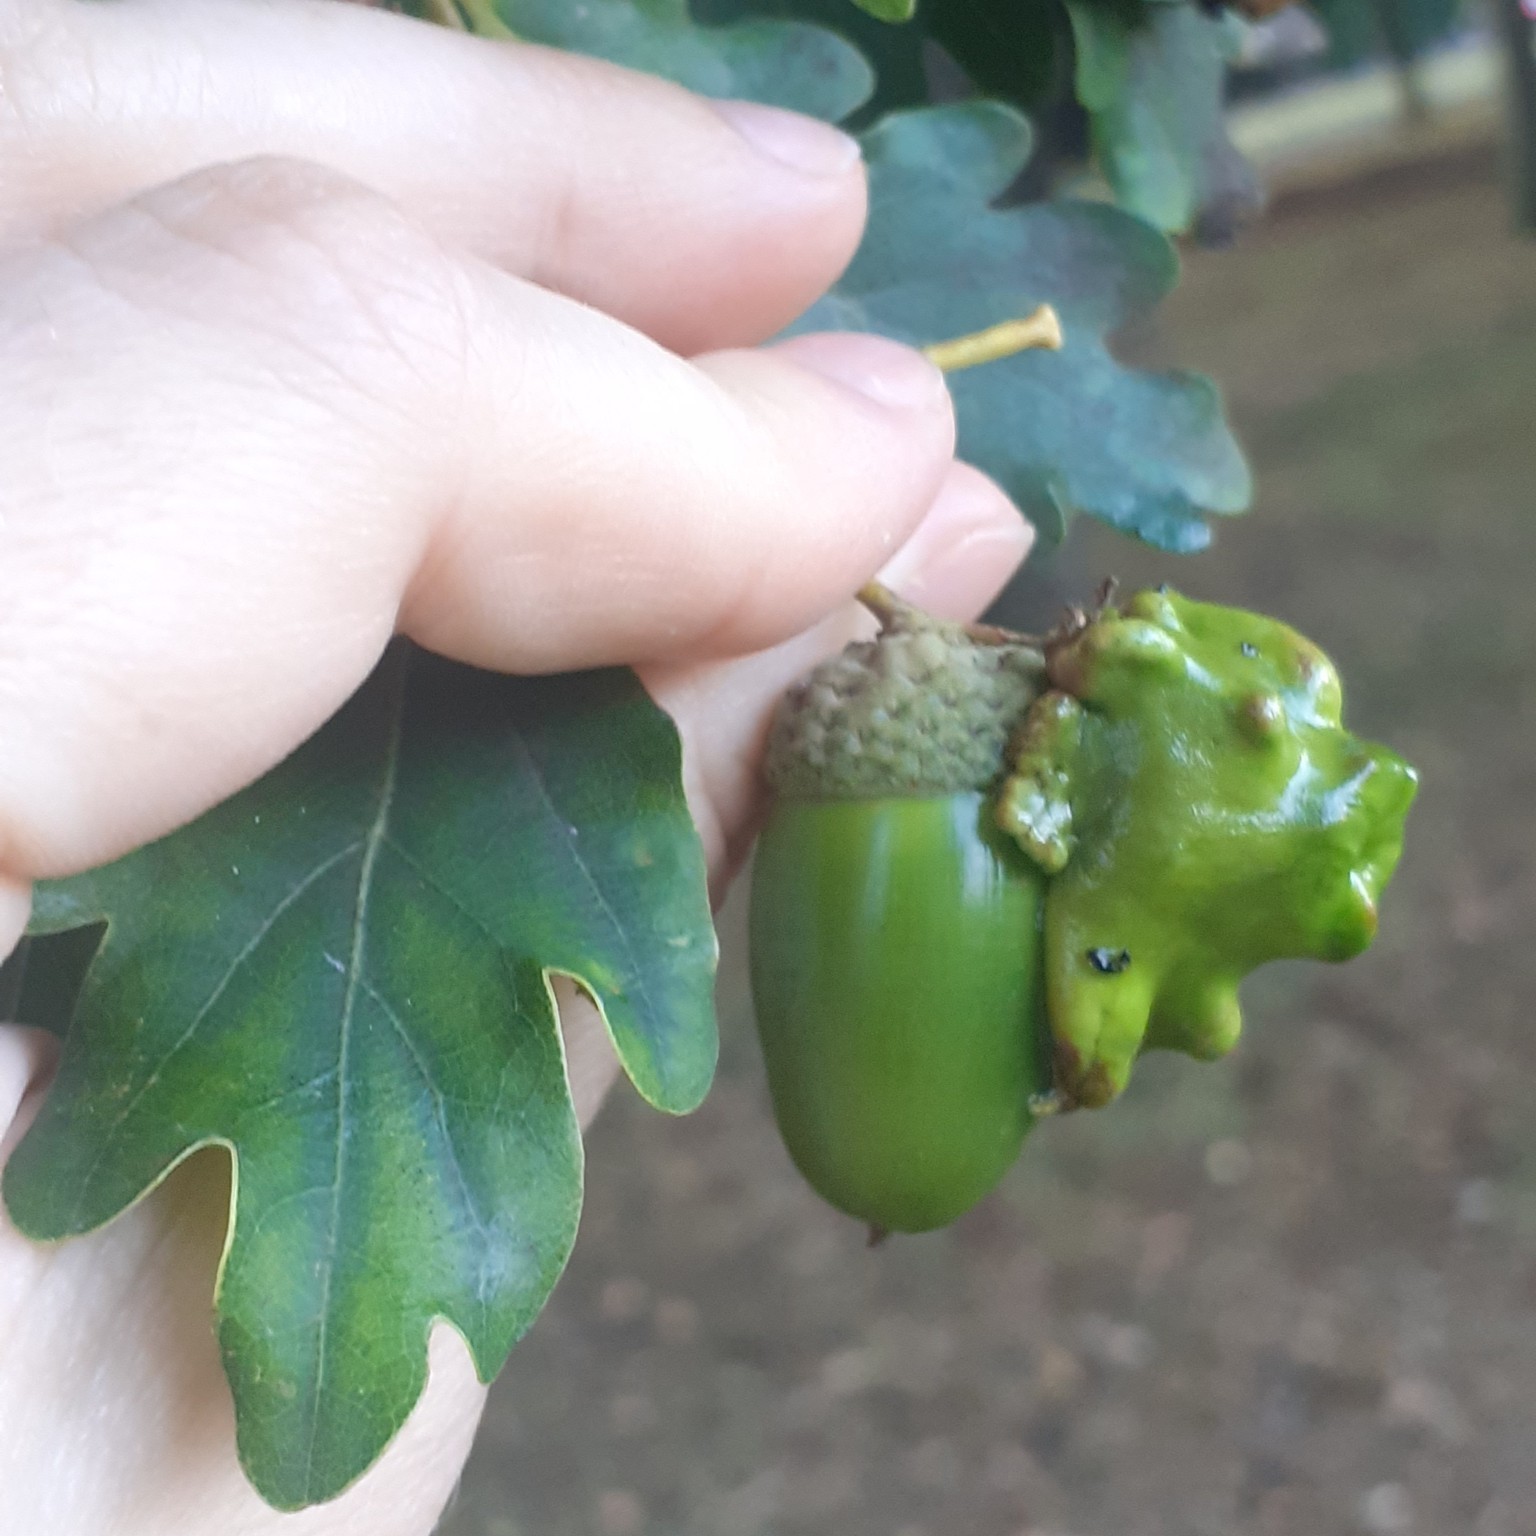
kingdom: Animalia
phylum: Arthropoda
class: Insecta
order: Hymenoptera
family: Cynipidae
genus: Andricus
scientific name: Andricus quercuscalicis
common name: Knopper gall
